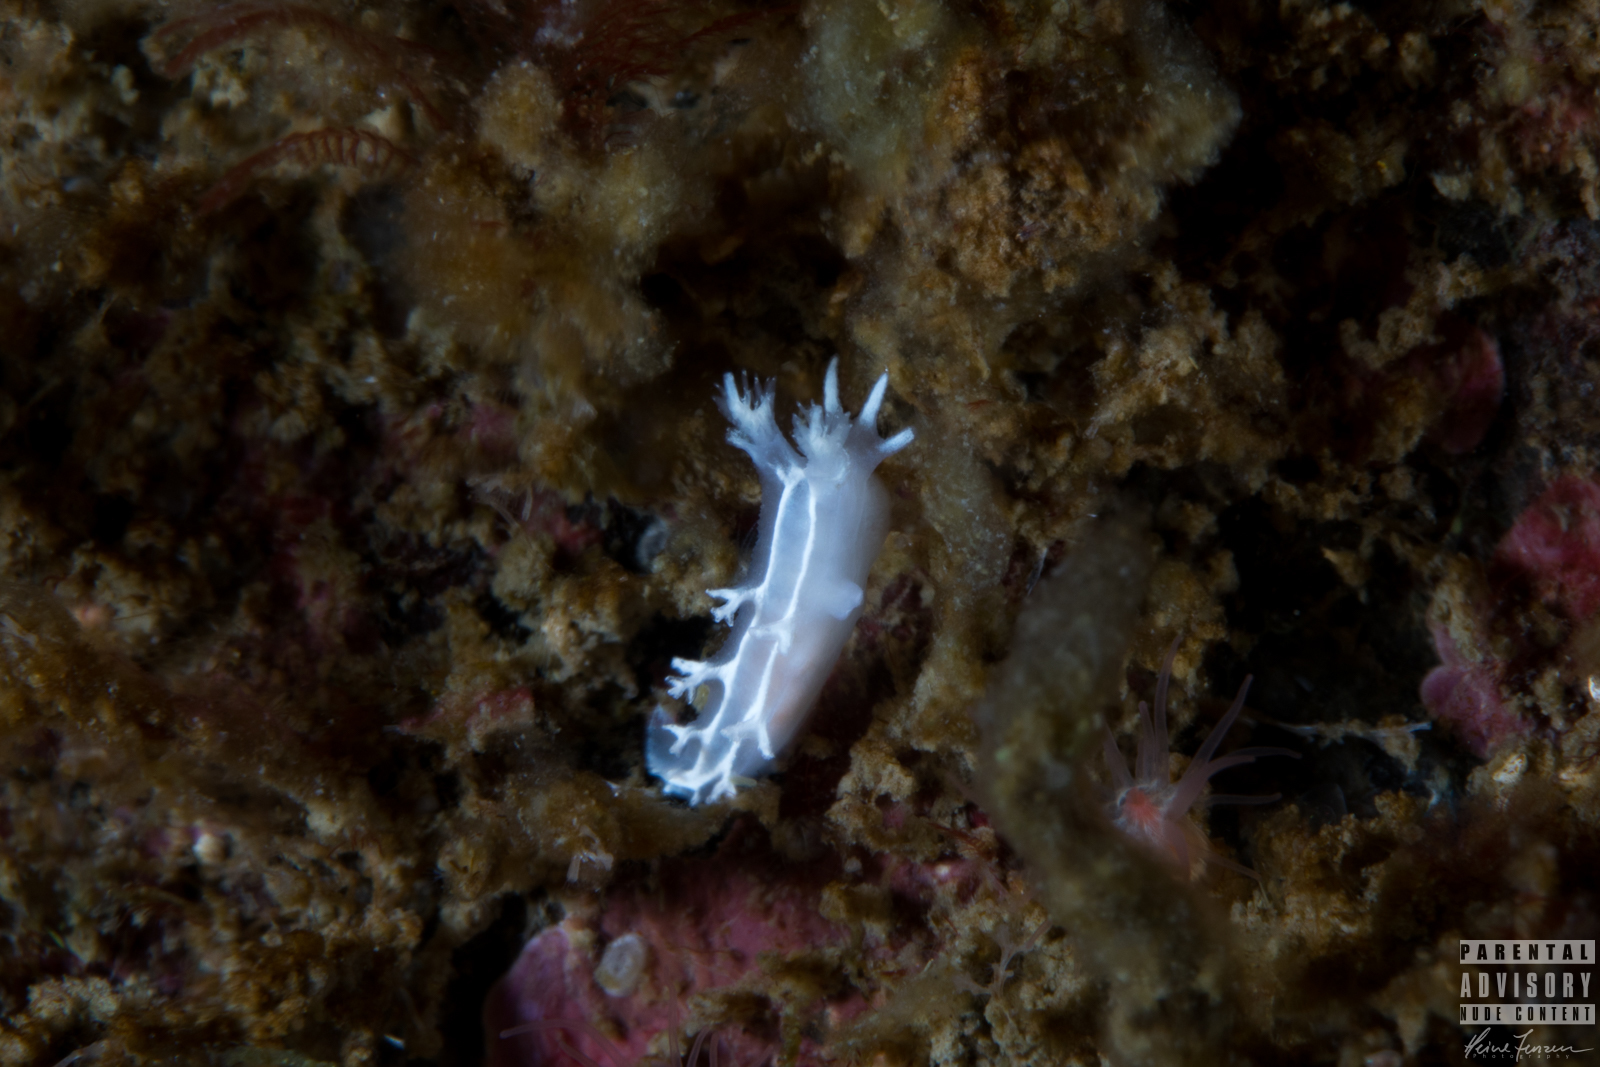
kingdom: Animalia
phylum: Mollusca
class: Gastropoda
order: Nudibranchia
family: Tritoniidae
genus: Duvaucelia
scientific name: Duvaucelia lineata
